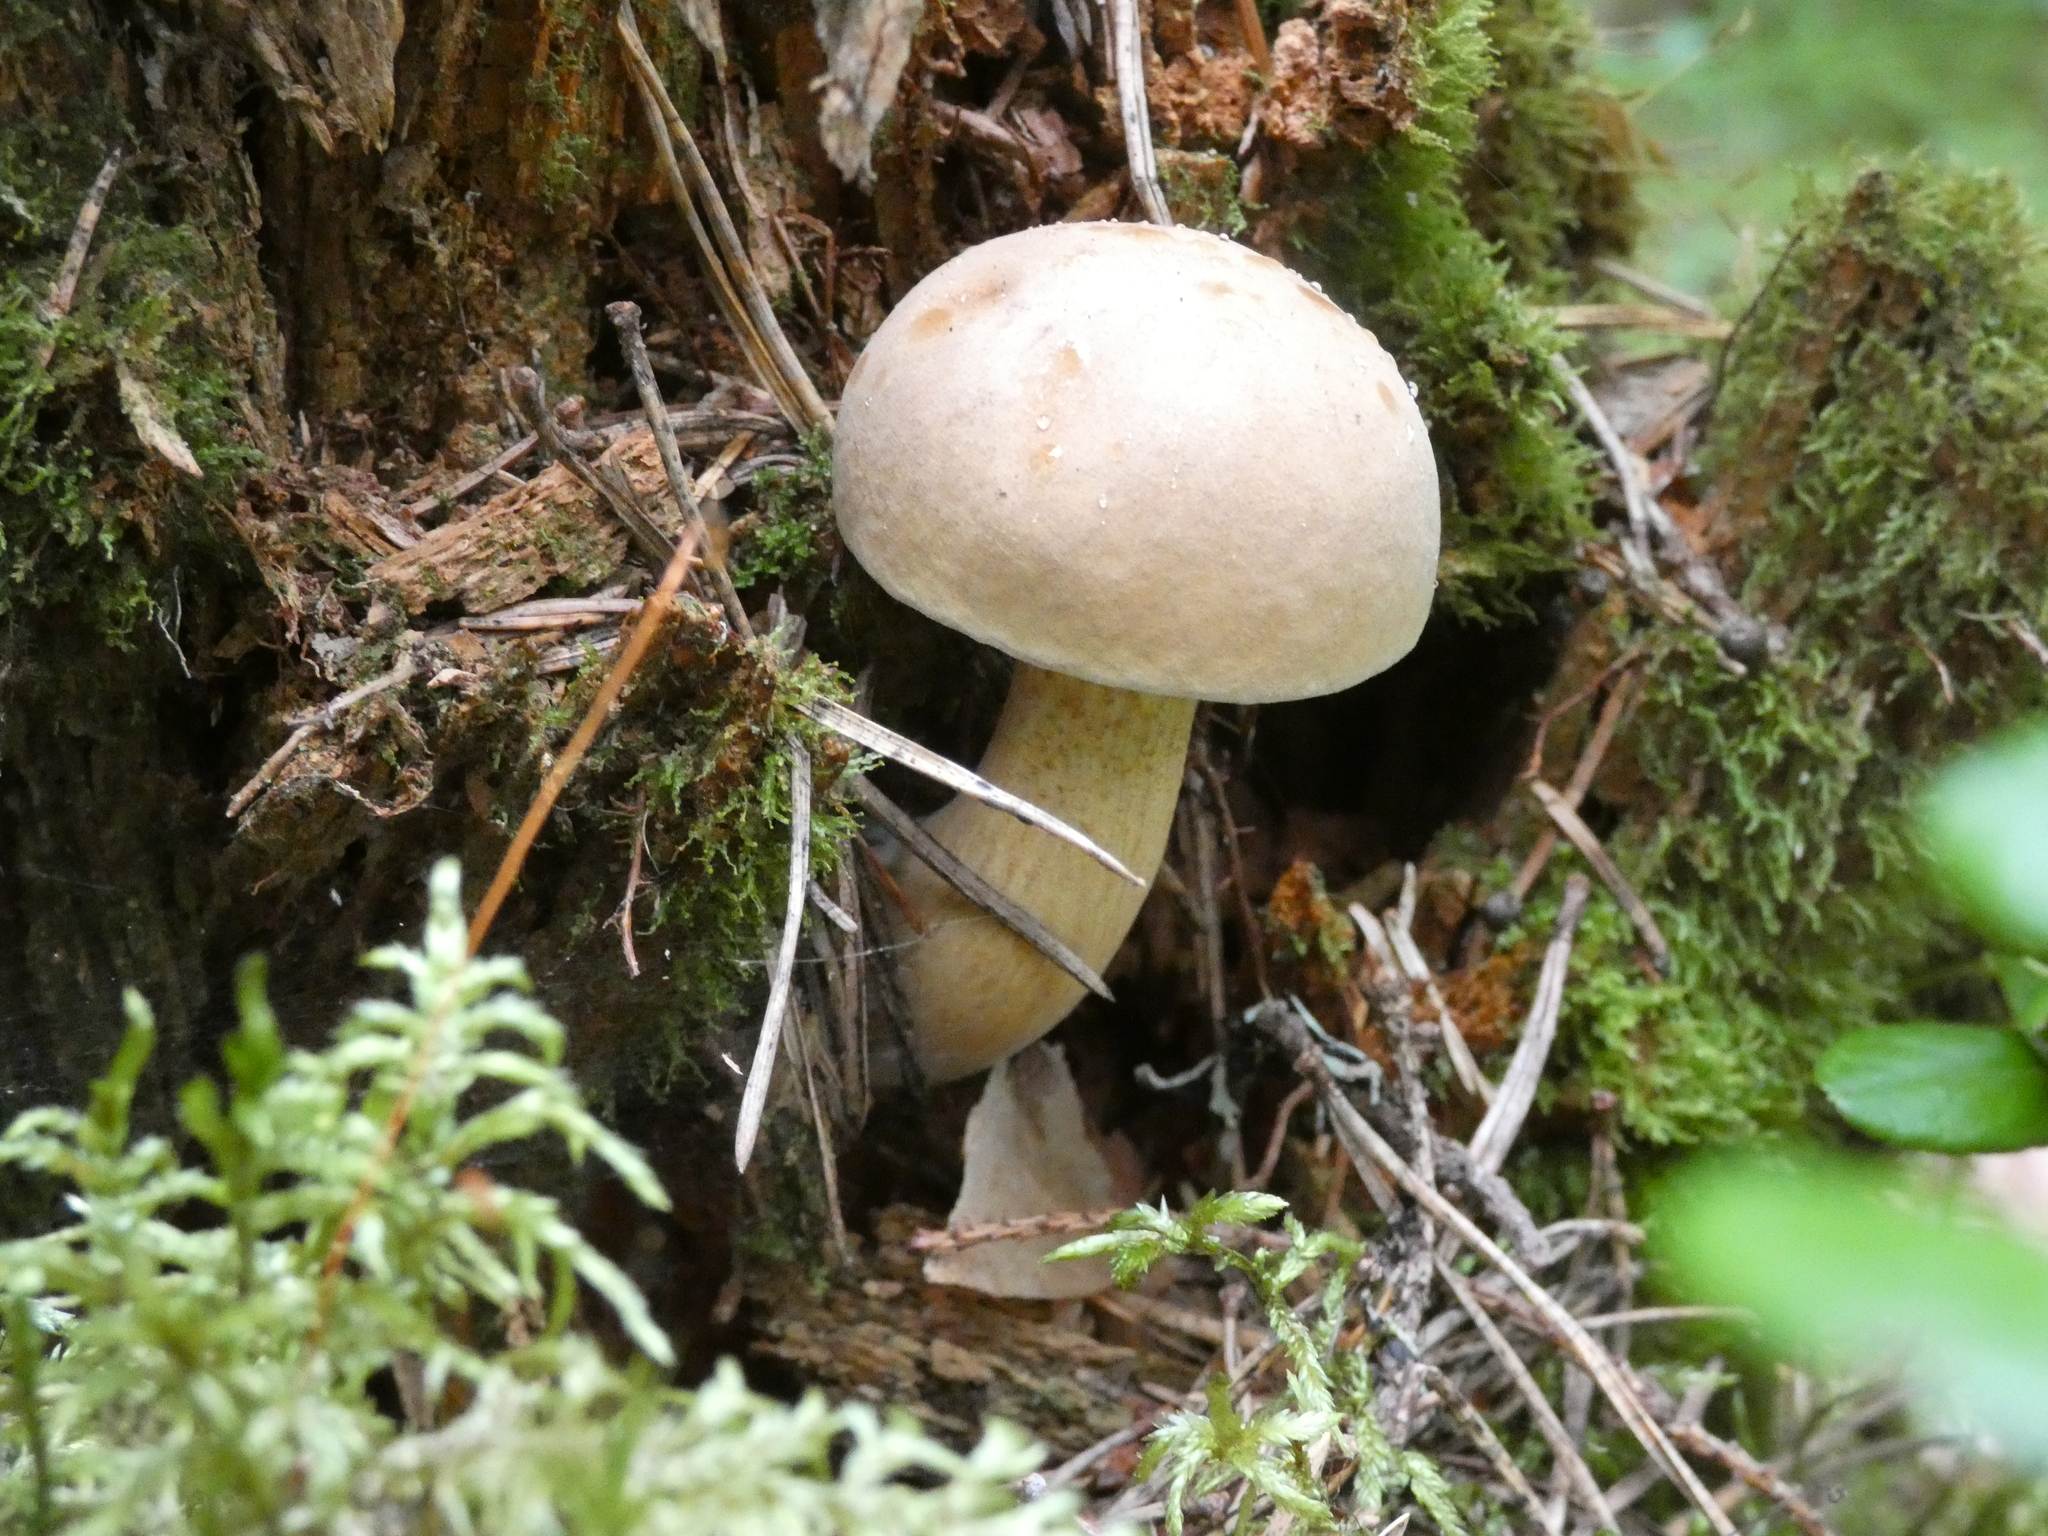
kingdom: Fungi
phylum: Basidiomycota
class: Agaricomycetes
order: Boletales
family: Boletaceae
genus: Tylopilus
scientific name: Tylopilus felleus
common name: Bitter bolete
